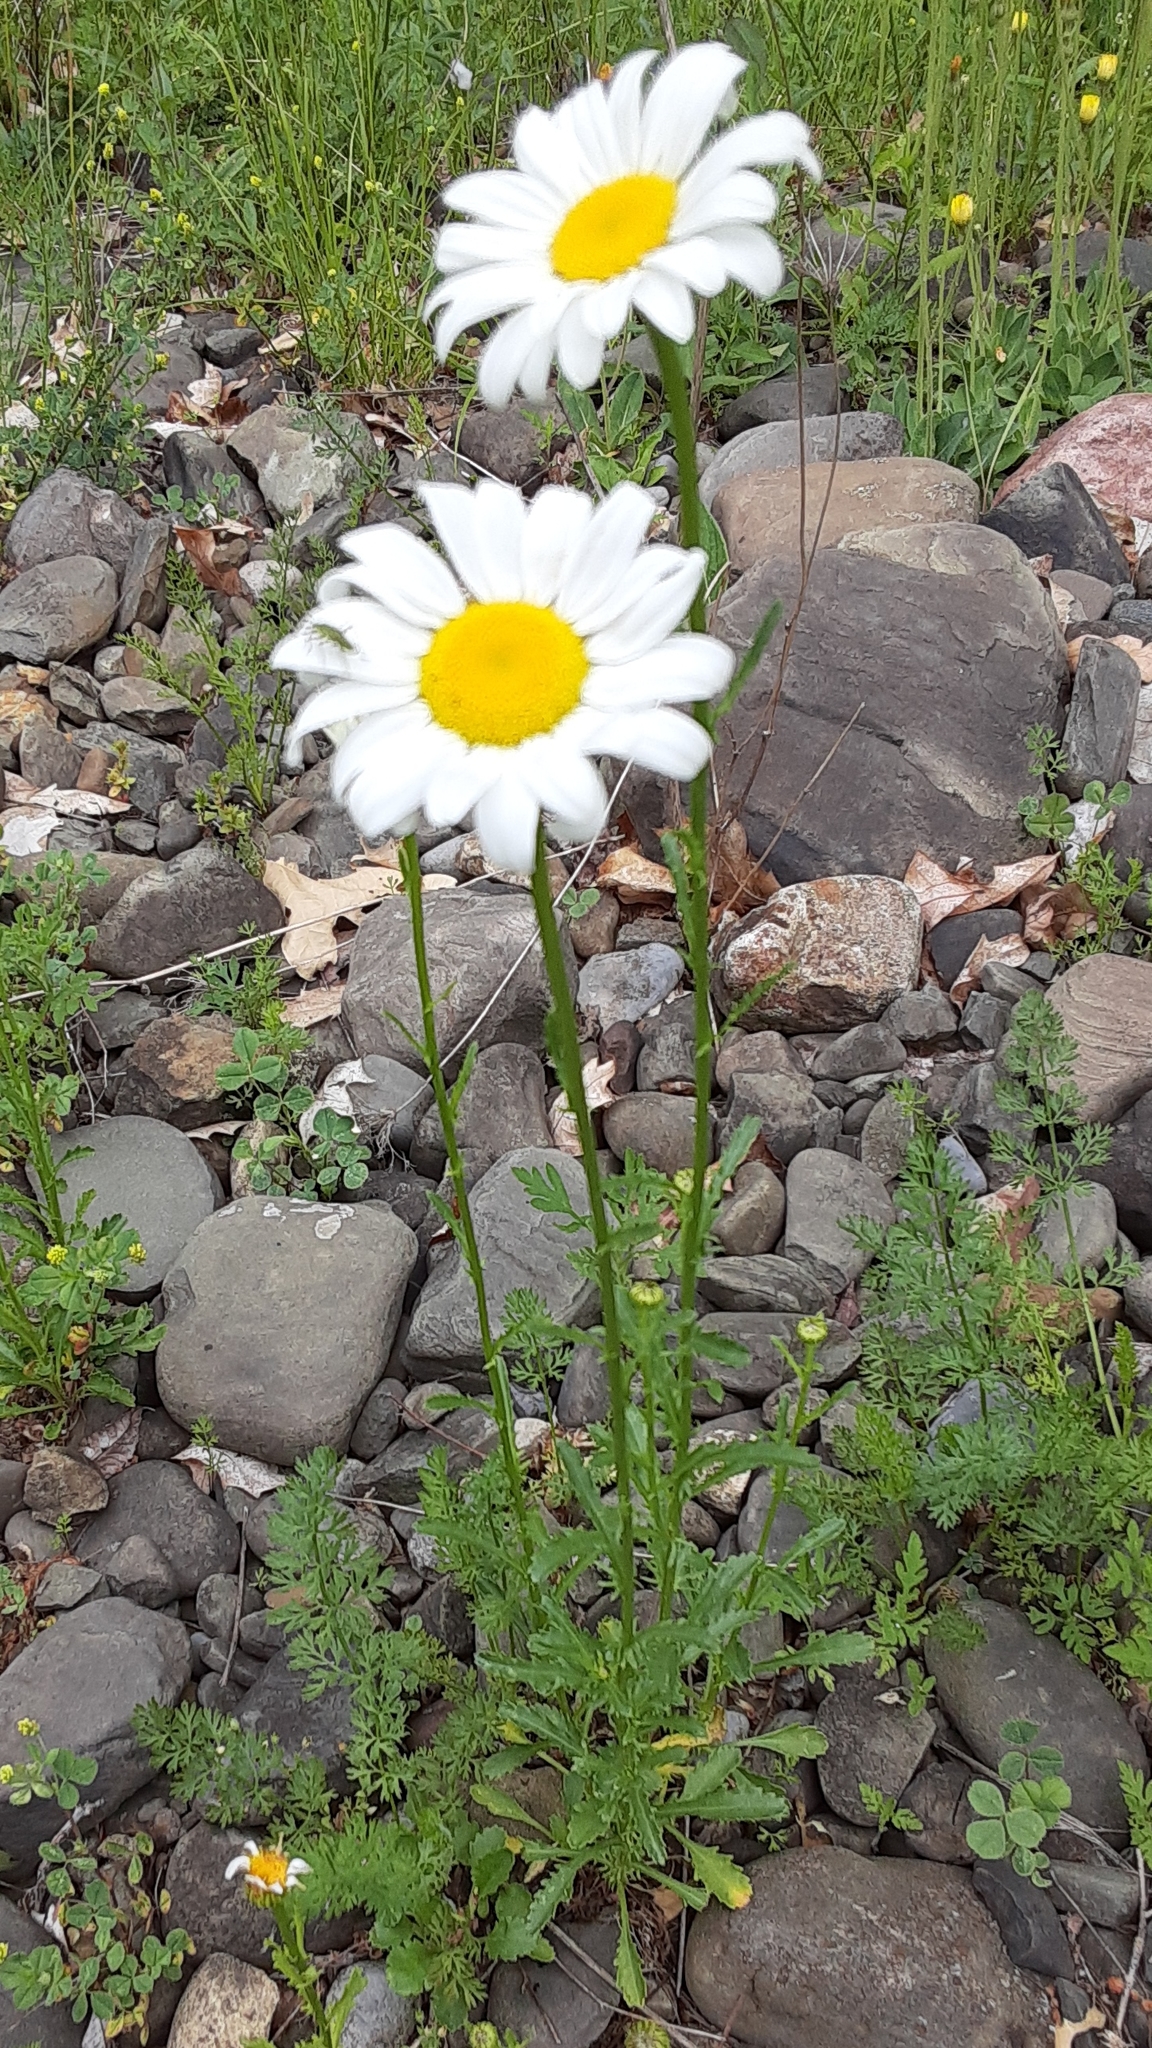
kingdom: Plantae
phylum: Tracheophyta
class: Magnoliopsida
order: Asterales
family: Asteraceae
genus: Leucanthemum
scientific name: Leucanthemum vulgare
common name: Oxeye daisy
